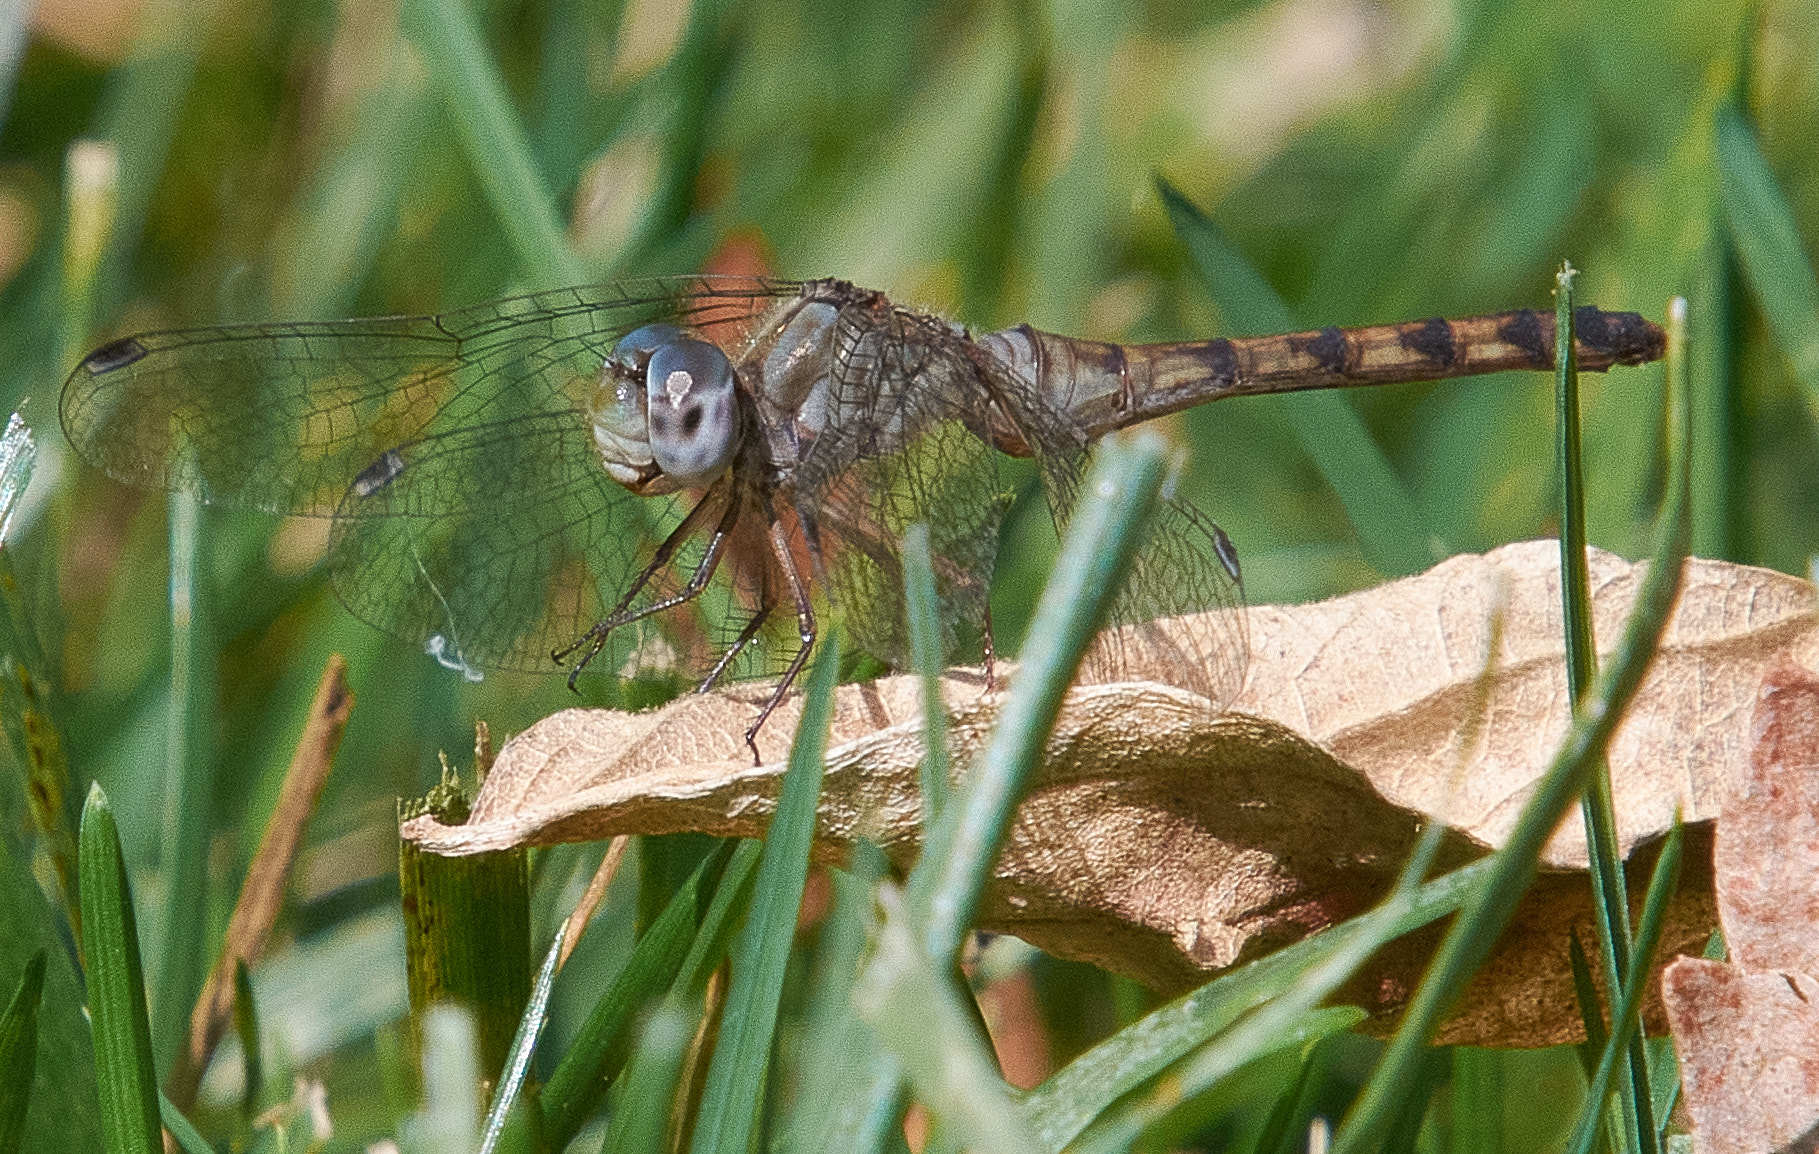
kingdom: Animalia
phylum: Arthropoda
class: Insecta
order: Odonata
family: Libellulidae
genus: Sympetrum
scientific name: Sympetrum ambiguum
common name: Blue-faced meadowhawk
